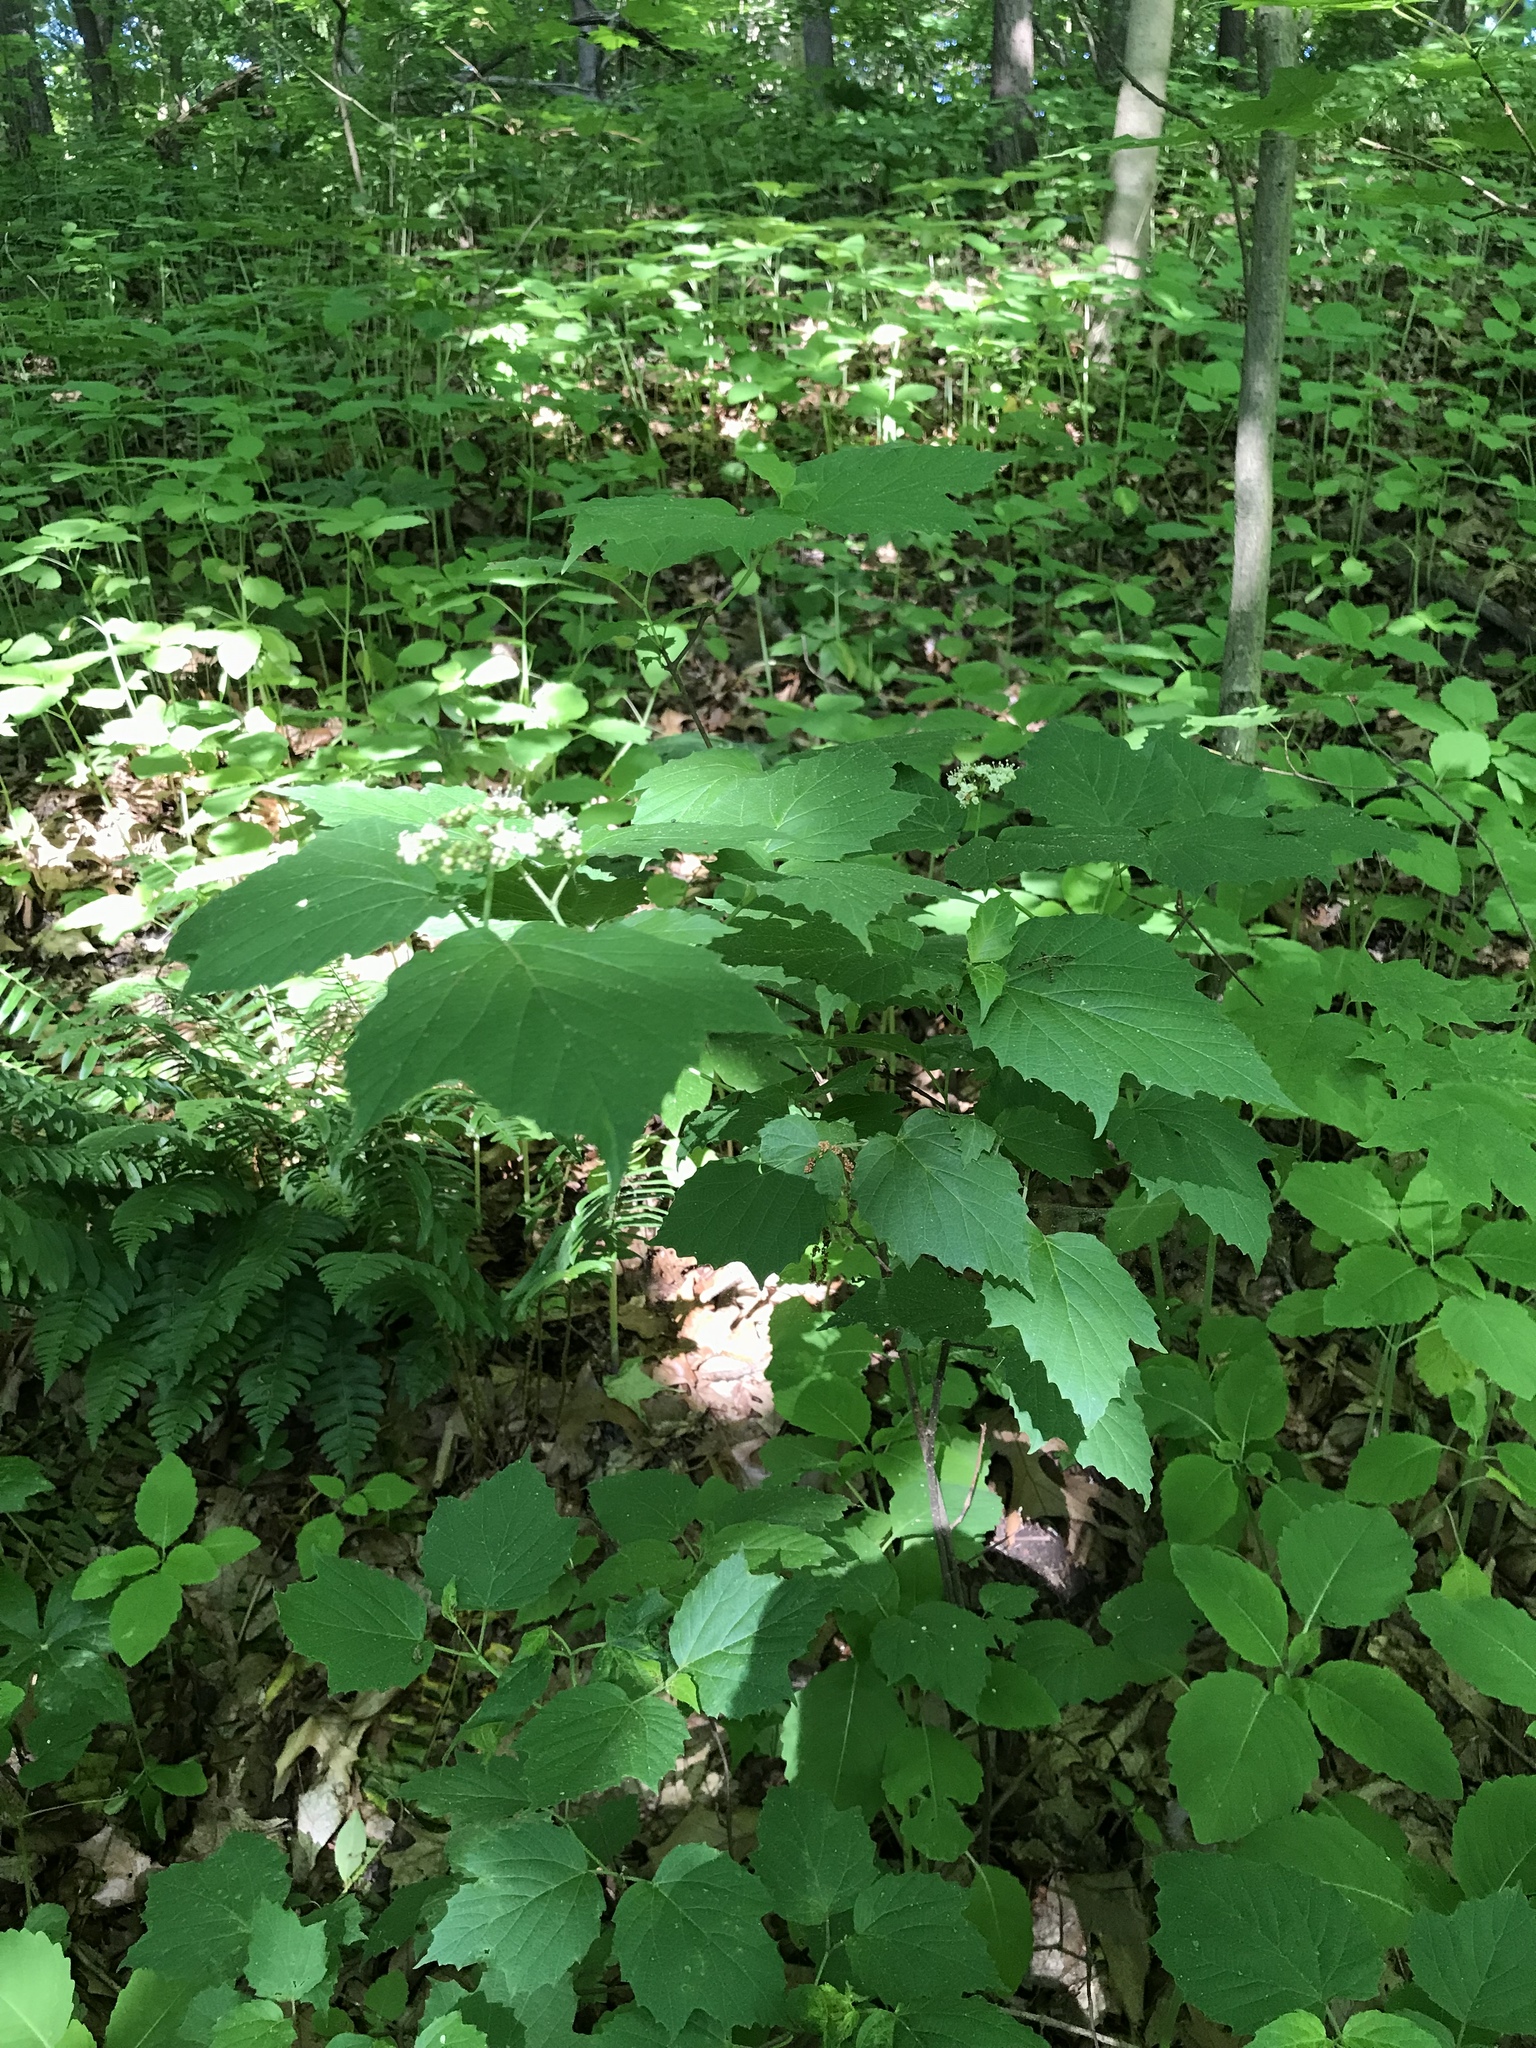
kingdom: Plantae
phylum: Tracheophyta
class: Magnoliopsida
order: Dipsacales
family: Viburnaceae
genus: Viburnum
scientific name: Viburnum acerifolium
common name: Dockmackie
